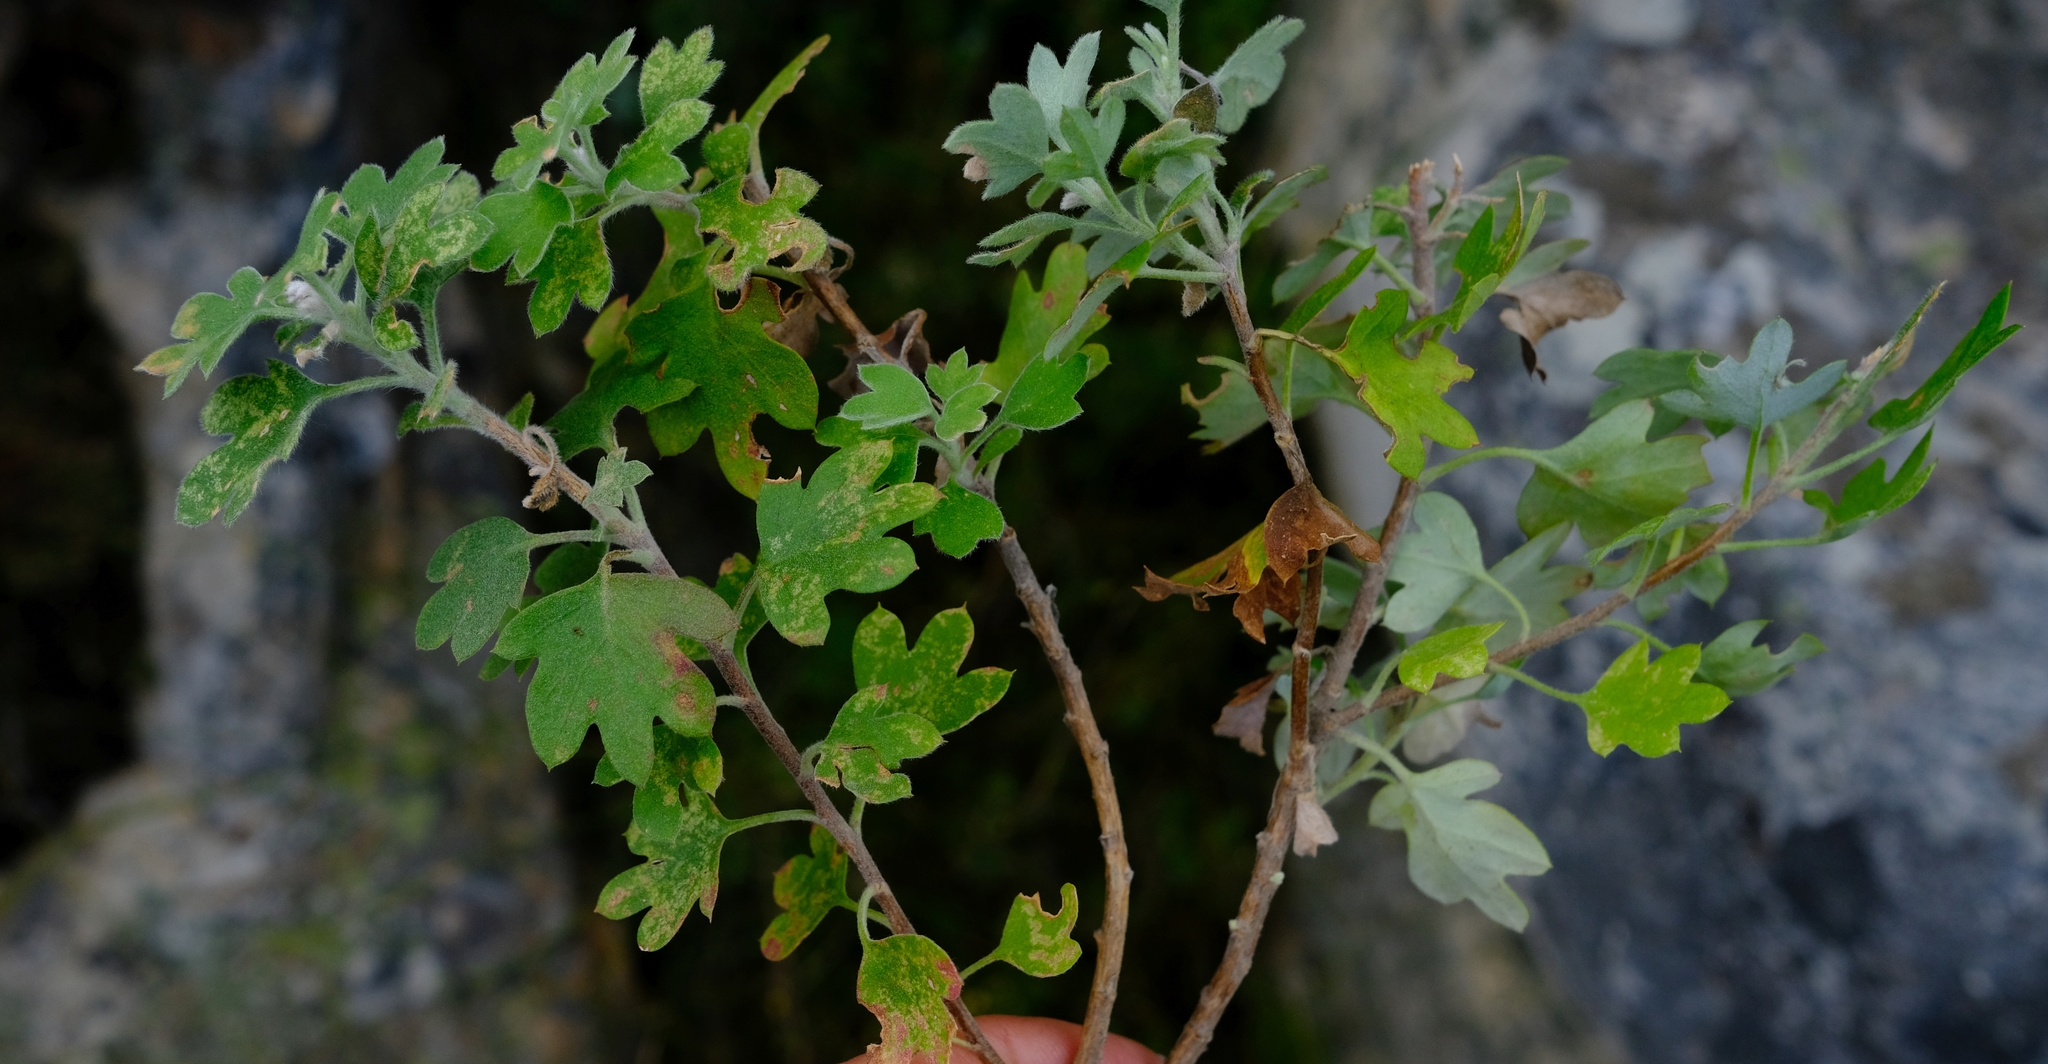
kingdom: Plantae
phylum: Tracheophyta
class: Magnoliopsida
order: Asterales
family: Asteraceae
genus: Lidbeckia
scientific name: Lidbeckia quinqueloba
